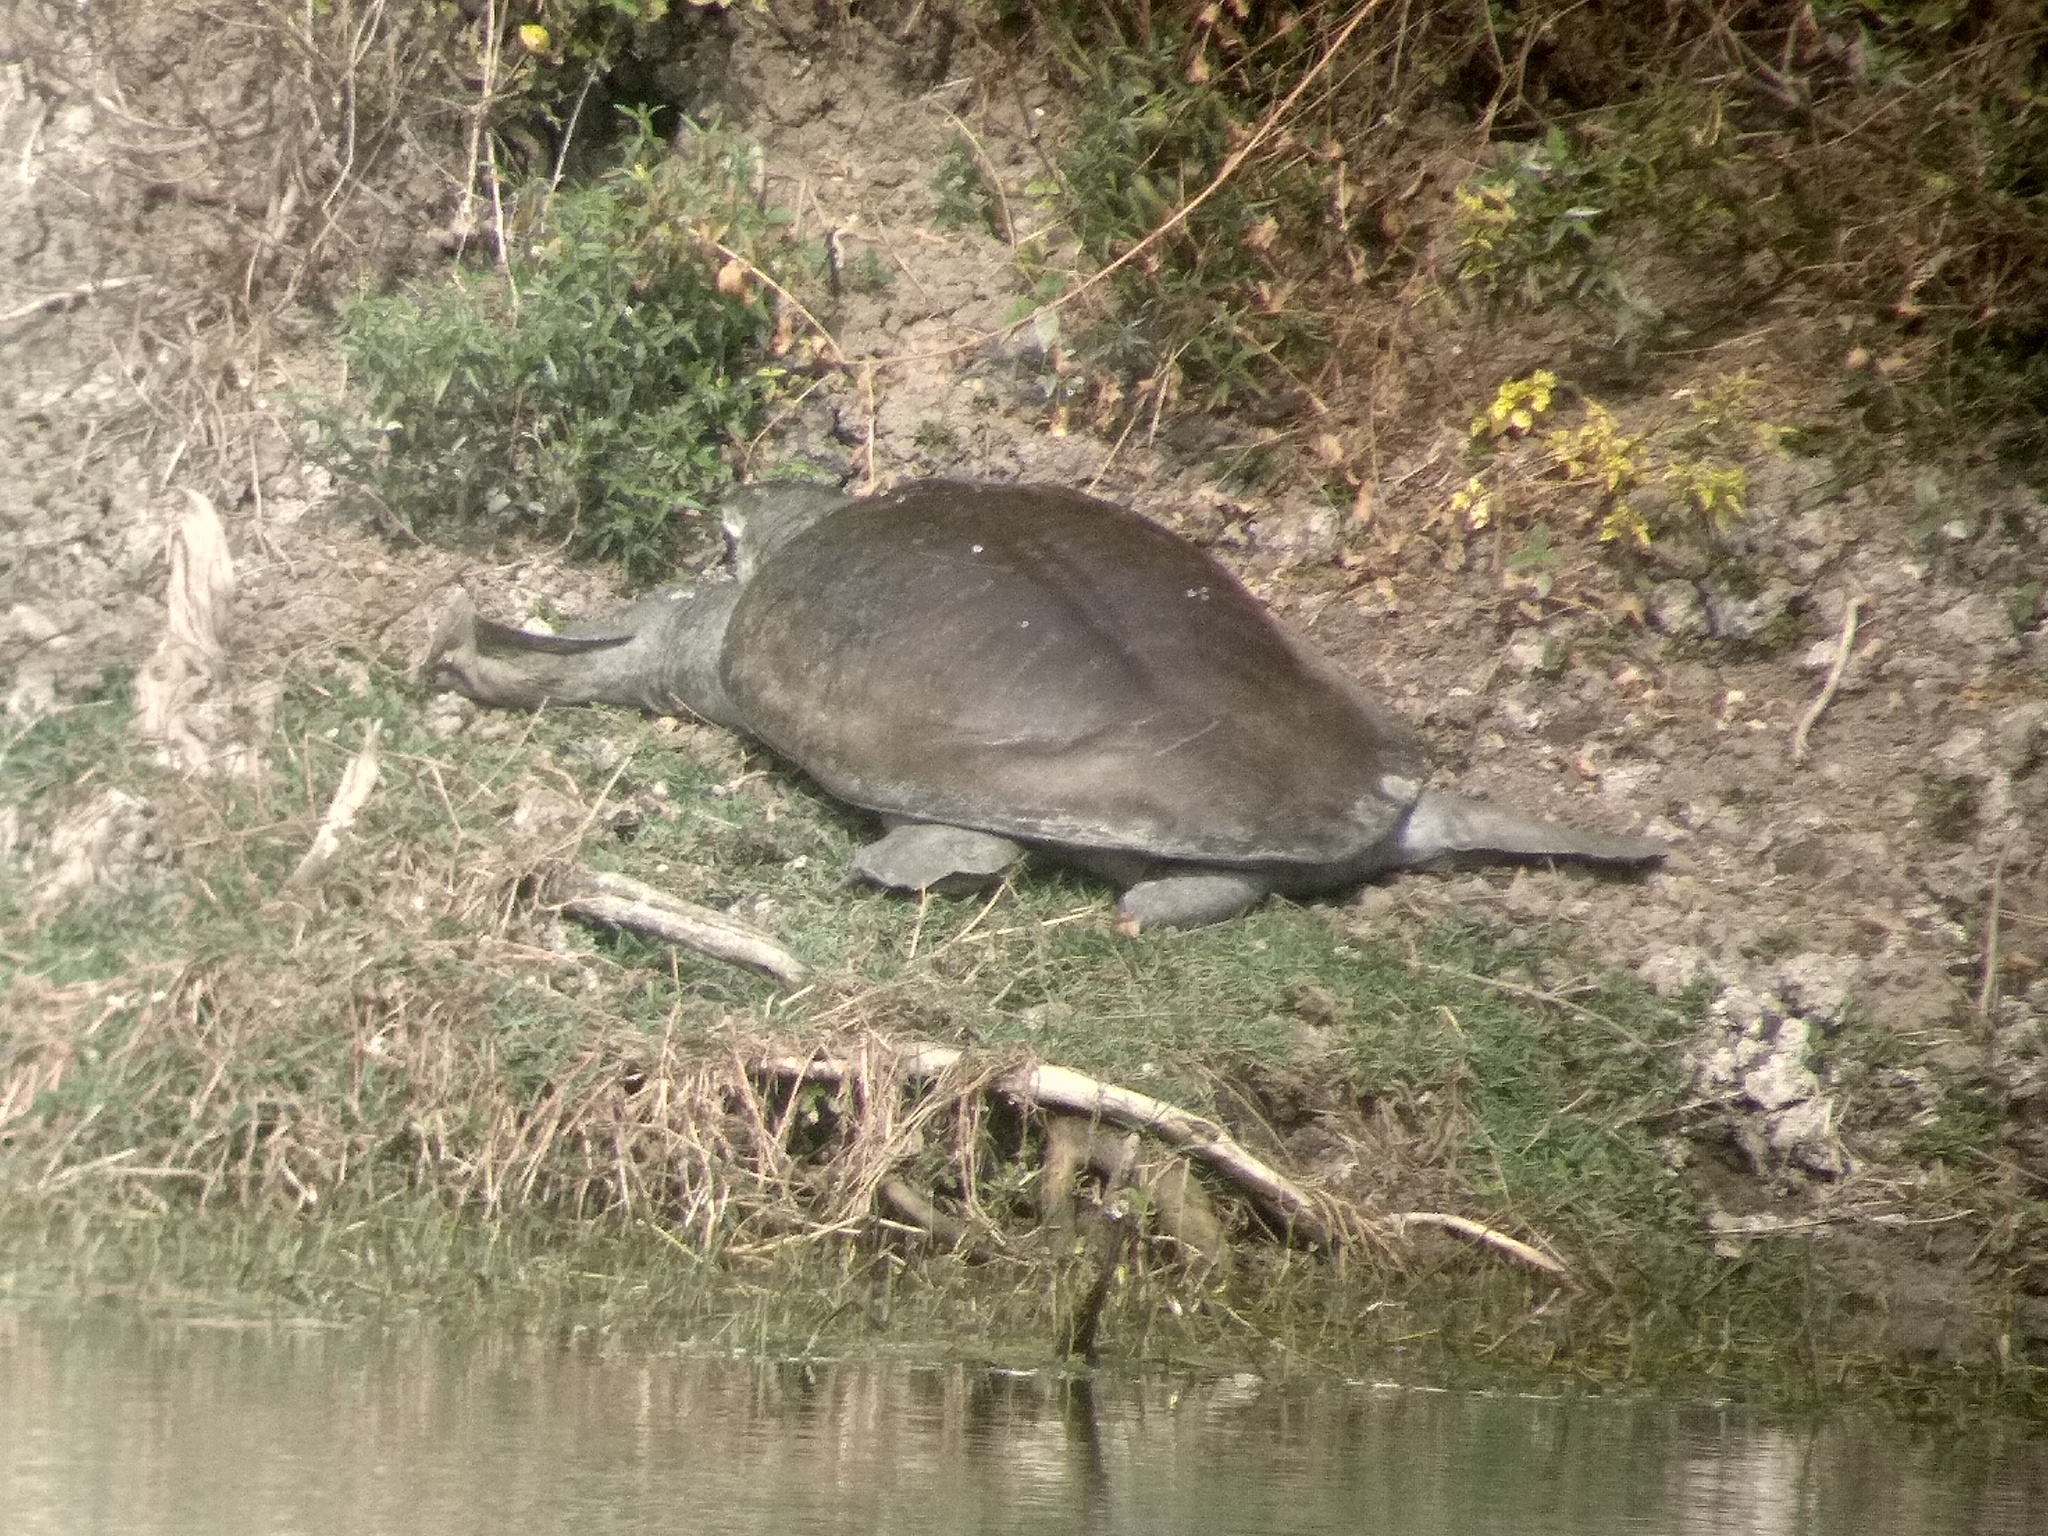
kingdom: Animalia
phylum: Chordata
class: Testudines
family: Trionychidae
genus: Nilssonia
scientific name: Nilssonia gangetica
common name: Indian softshell turtle
